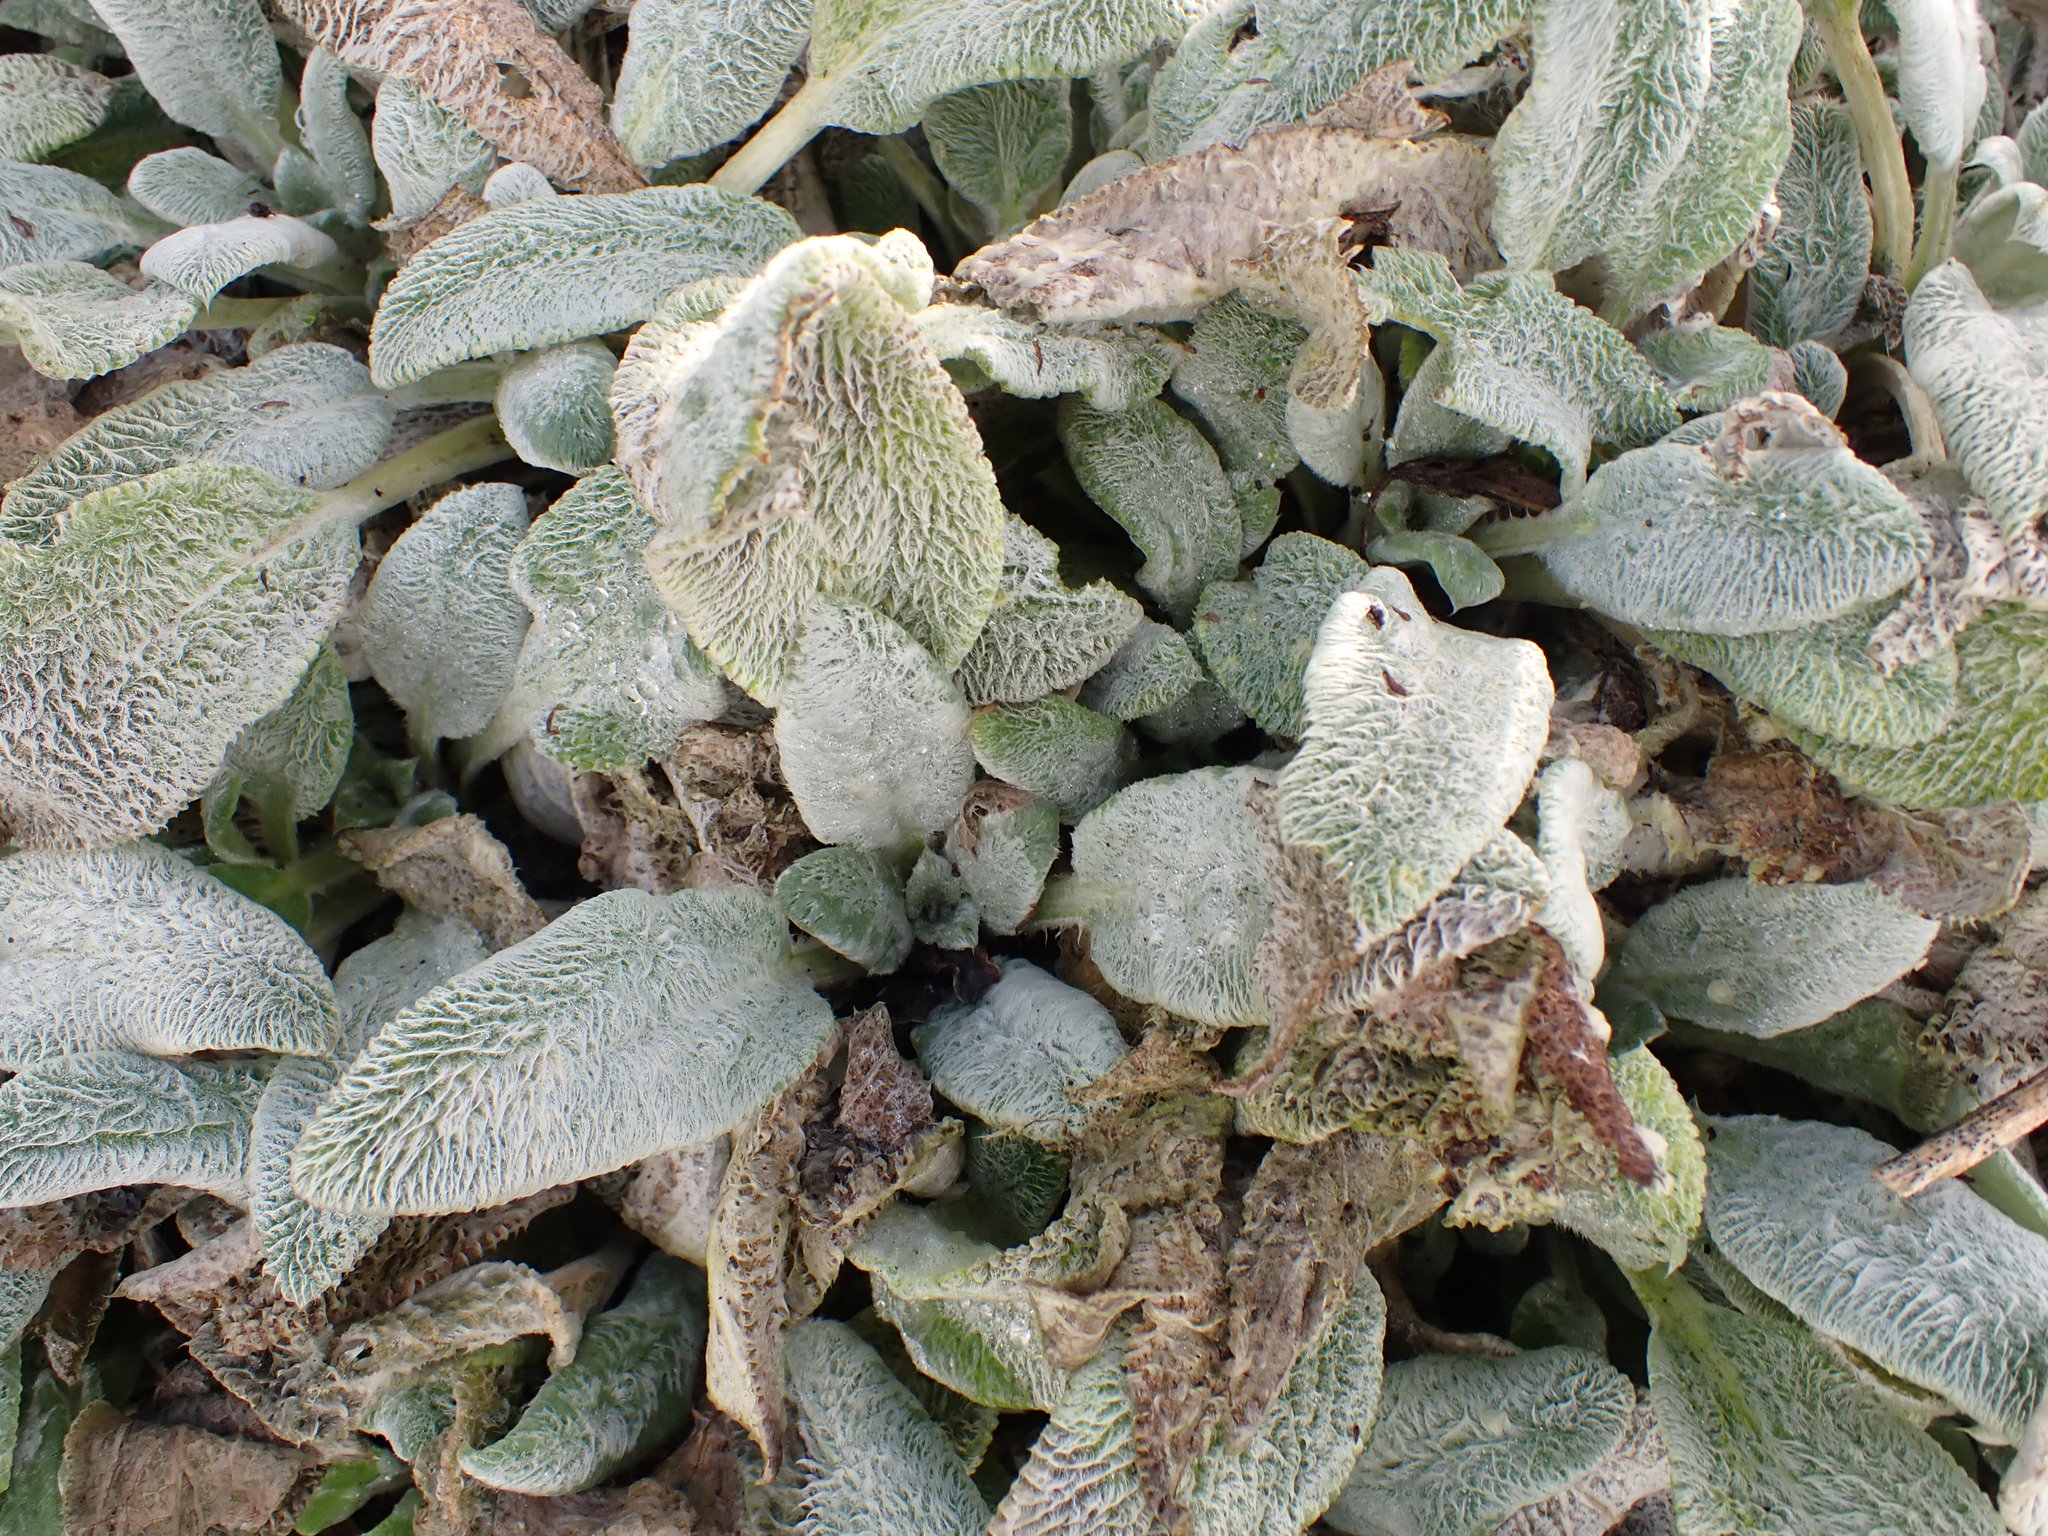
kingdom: Plantae
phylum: Tracheophyta
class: Magnoliopsida
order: Lamiales
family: Lamiaceae
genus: Stachys
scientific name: Stachys byzantina
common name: Lamb's-ear
